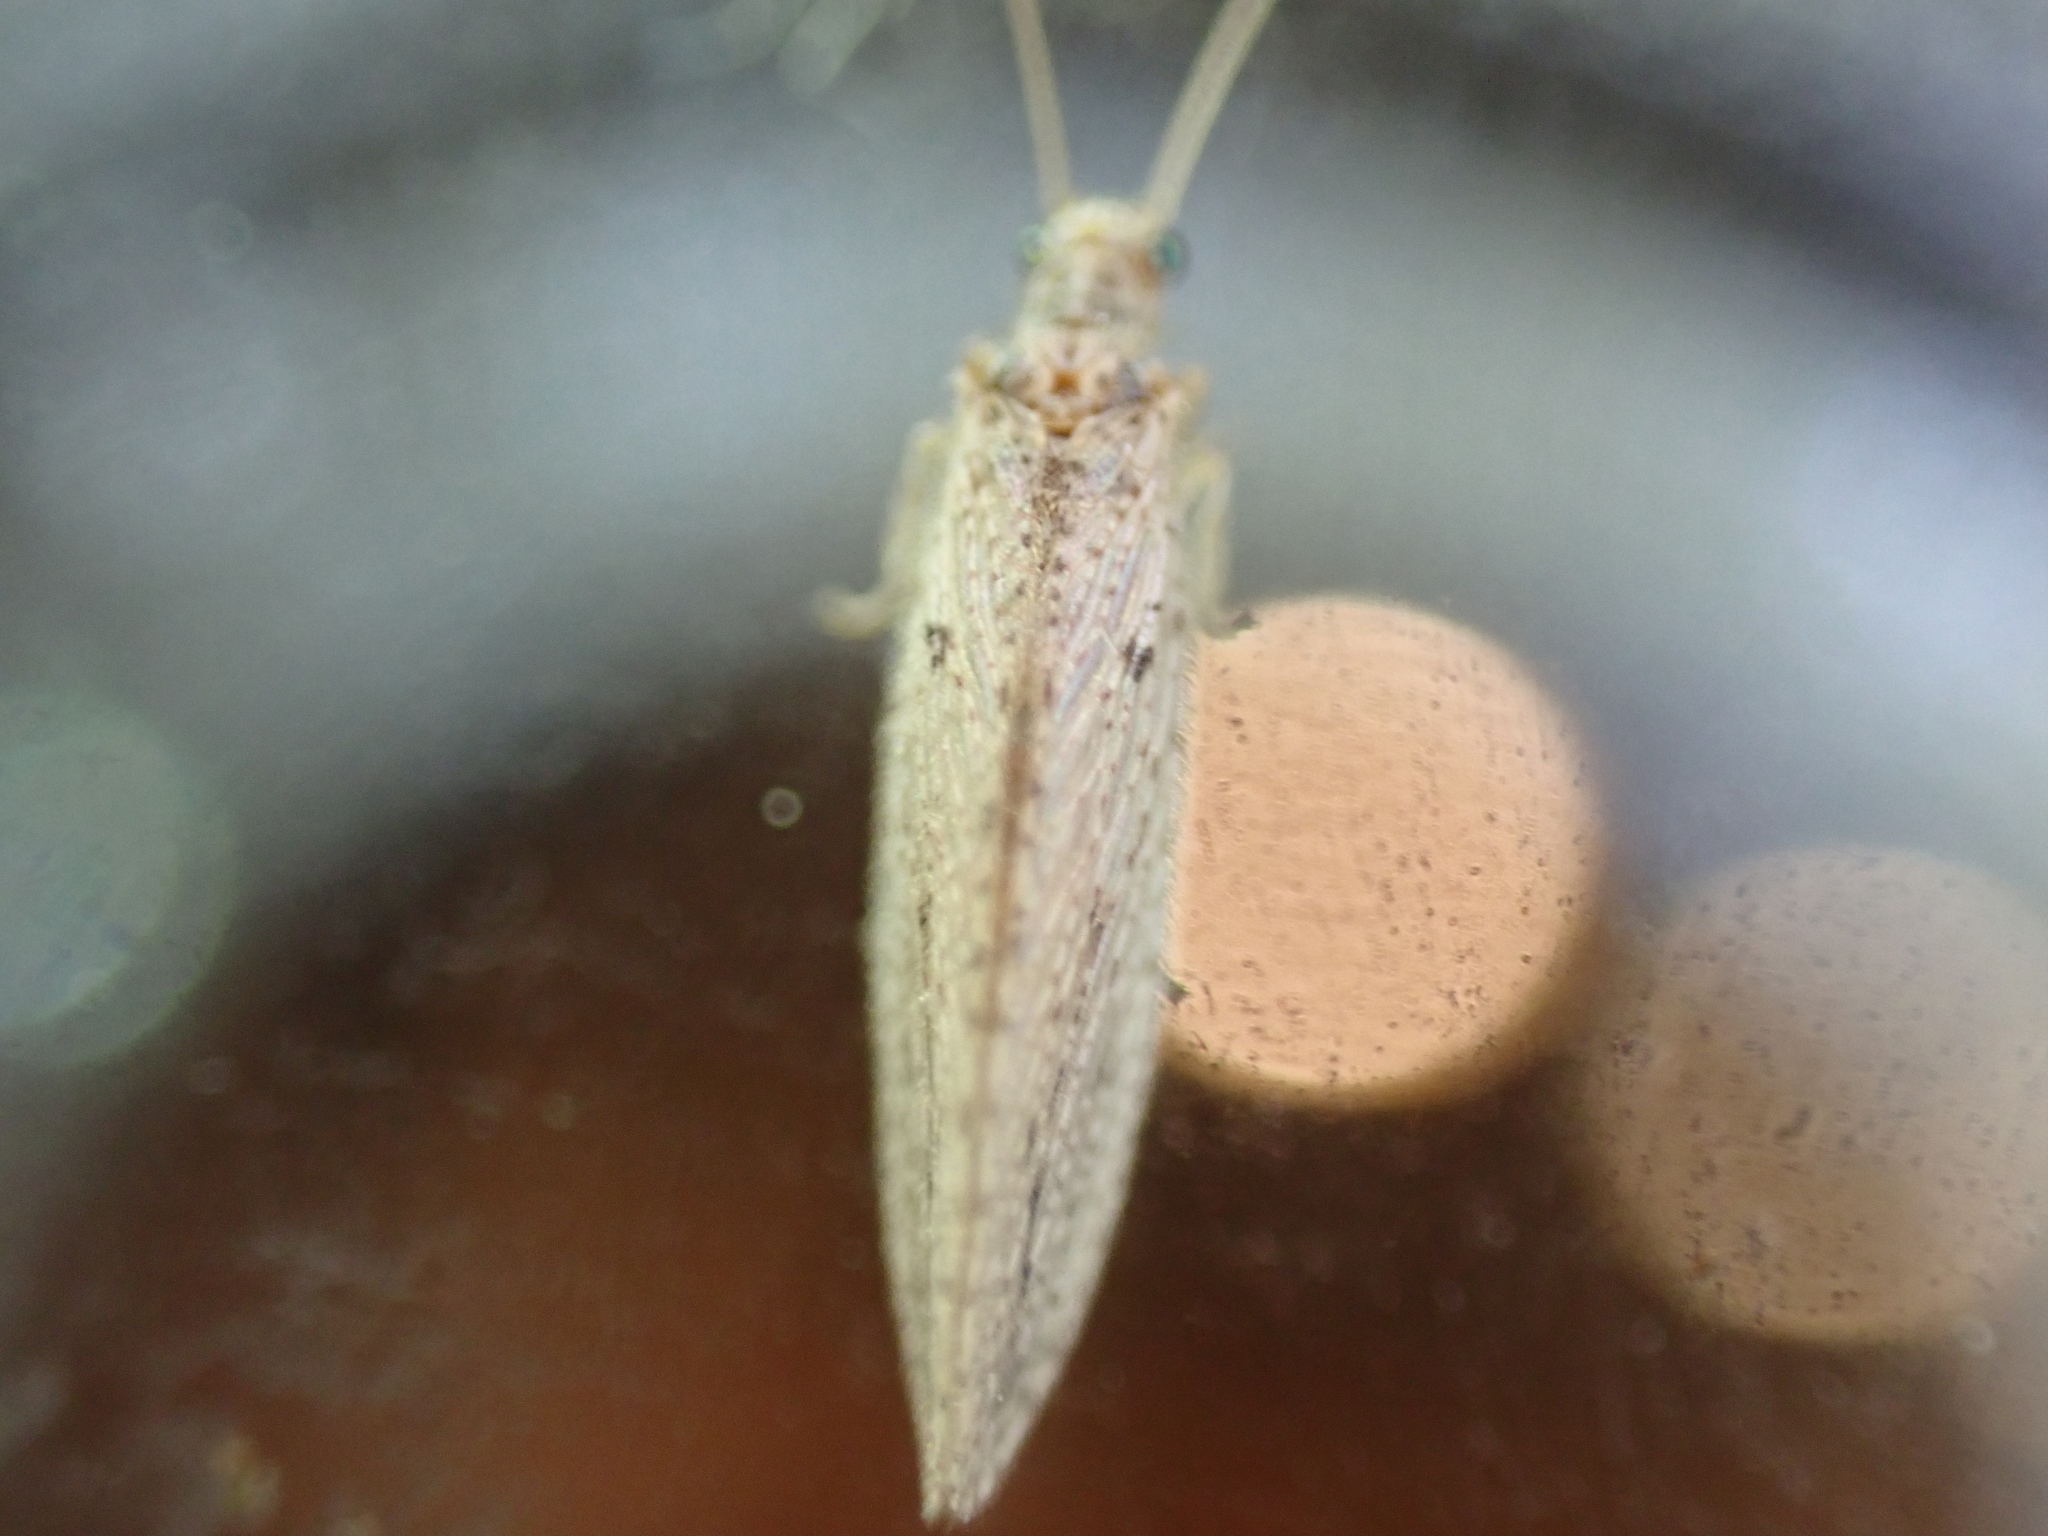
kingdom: Animalia
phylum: Arthropoda
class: Insecta
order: Neuroptera
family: Hemerobiidae
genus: Micromus
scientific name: Micromus subanticus
